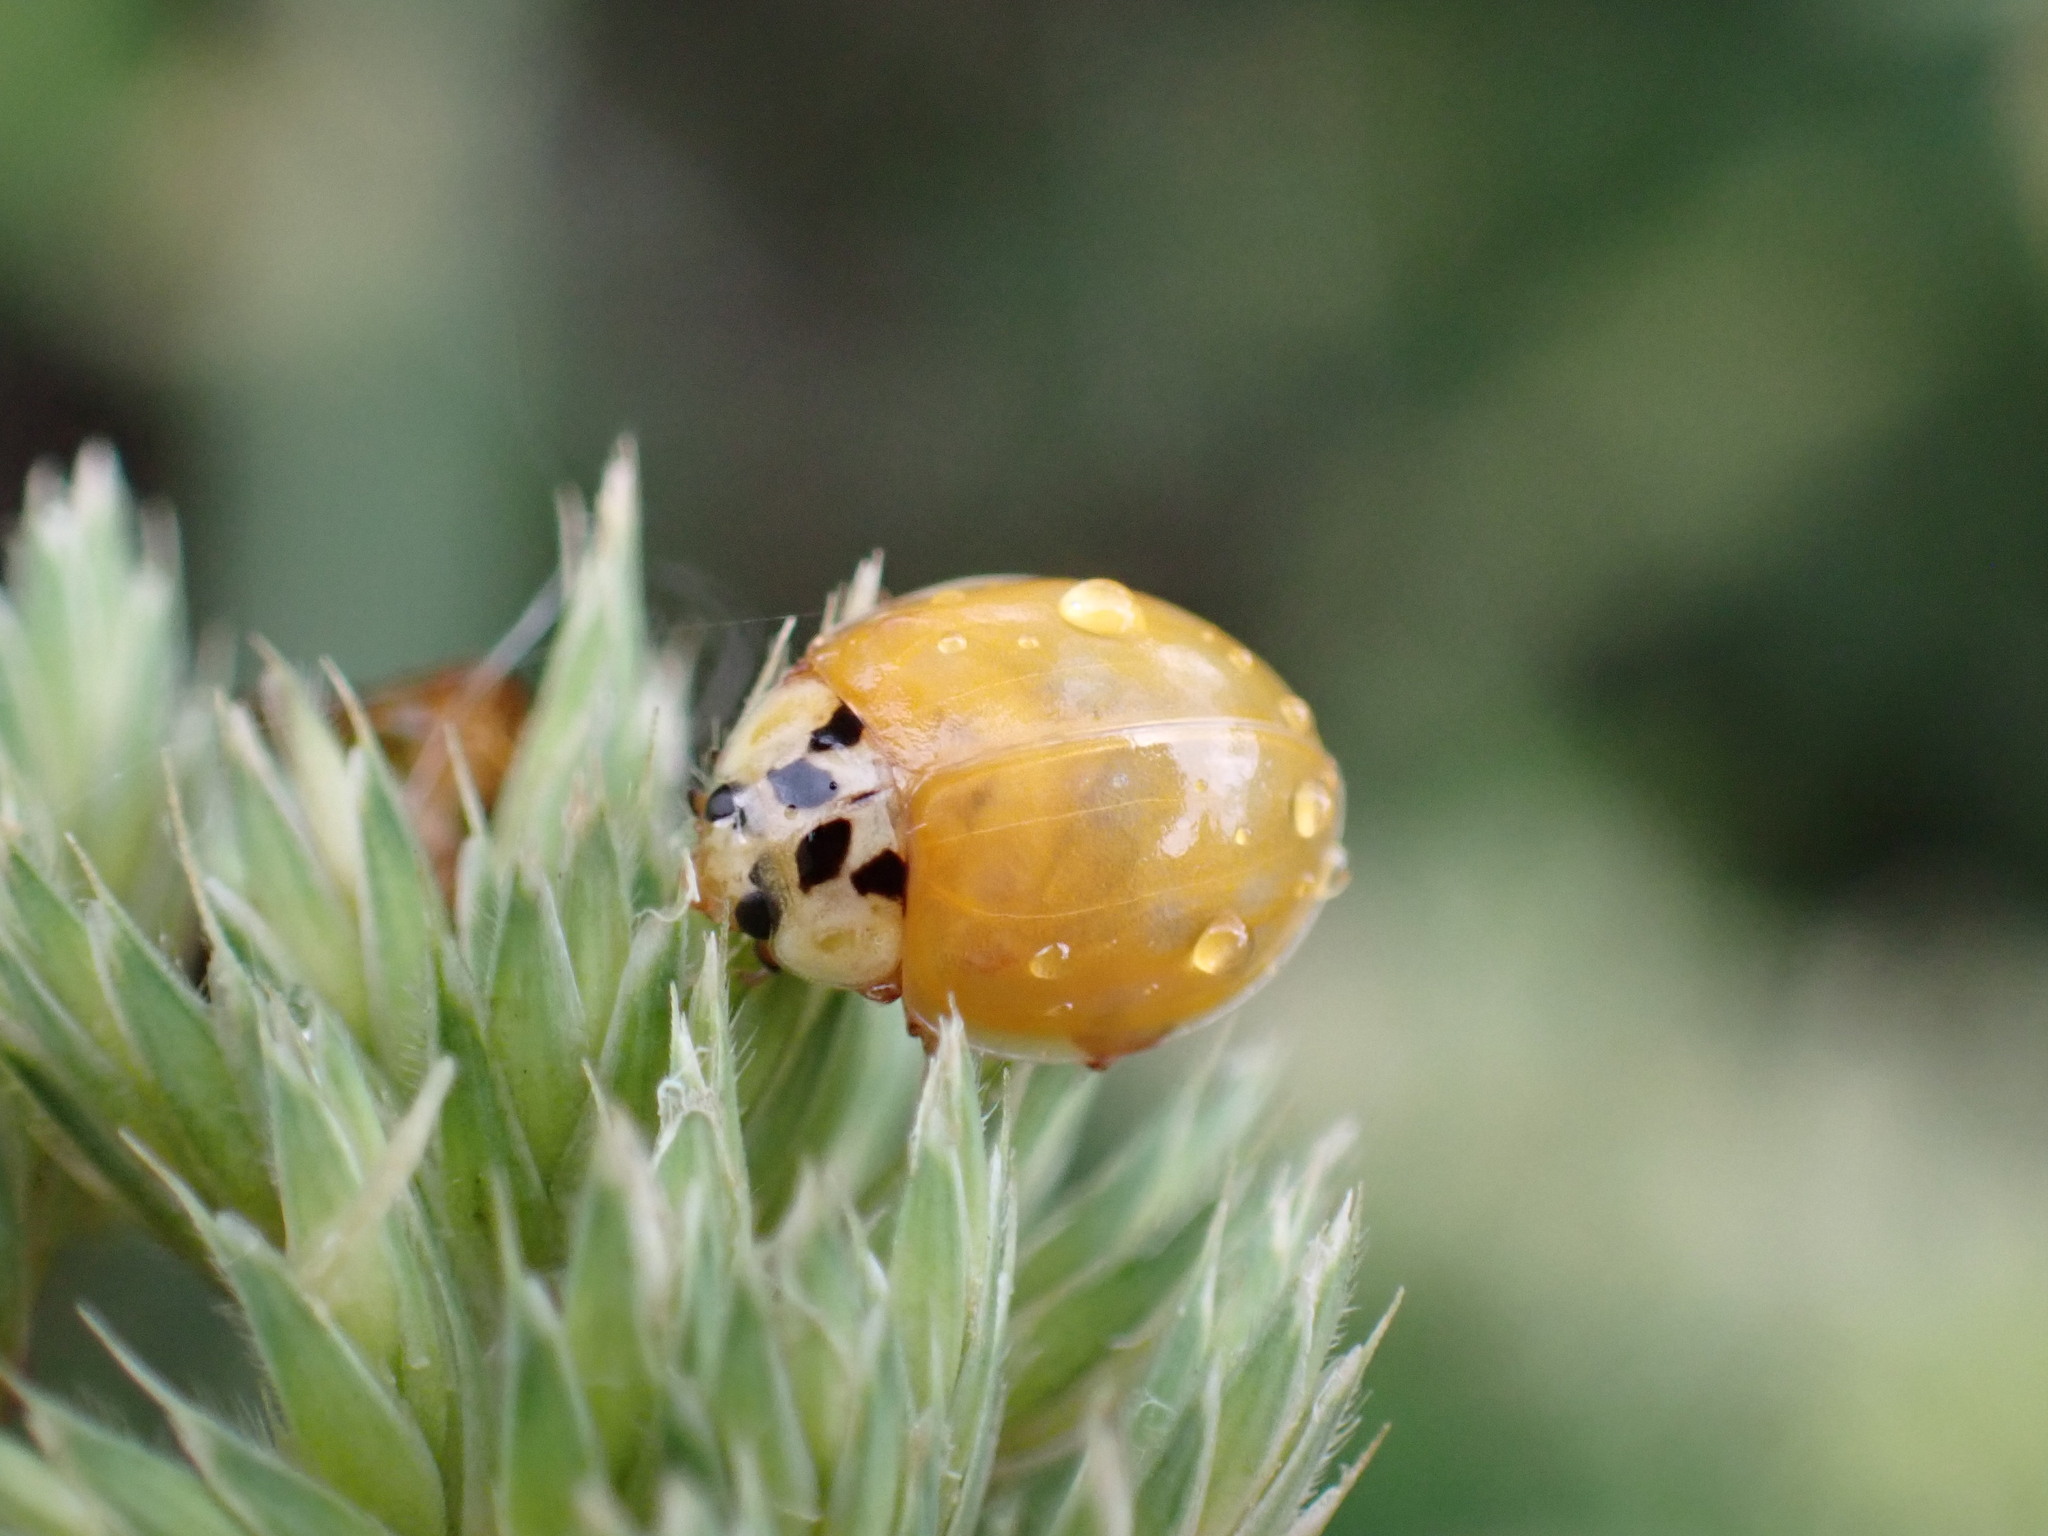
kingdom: Animalia
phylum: Arthropoda
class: Insecta
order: Coleoptera
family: Coccinellidae
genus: Harmonia
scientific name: Harmonia axyridis
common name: Harlequin ladybird
